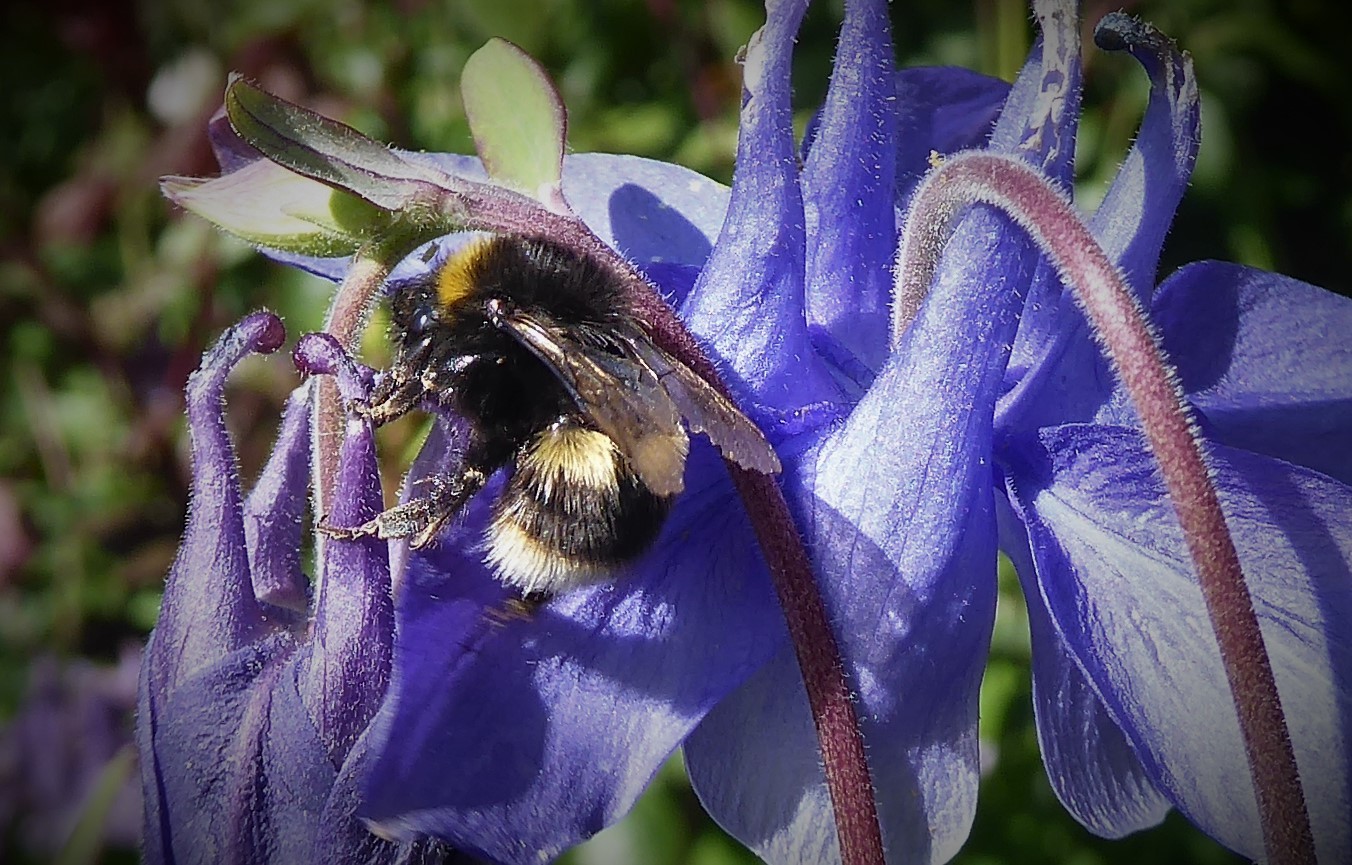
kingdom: Animalia
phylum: Arthropoda
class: Insecta
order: Hymenoptera
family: Apidae
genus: Bombus
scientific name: Bombus terrestris
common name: Buff-tailed bumblebee
